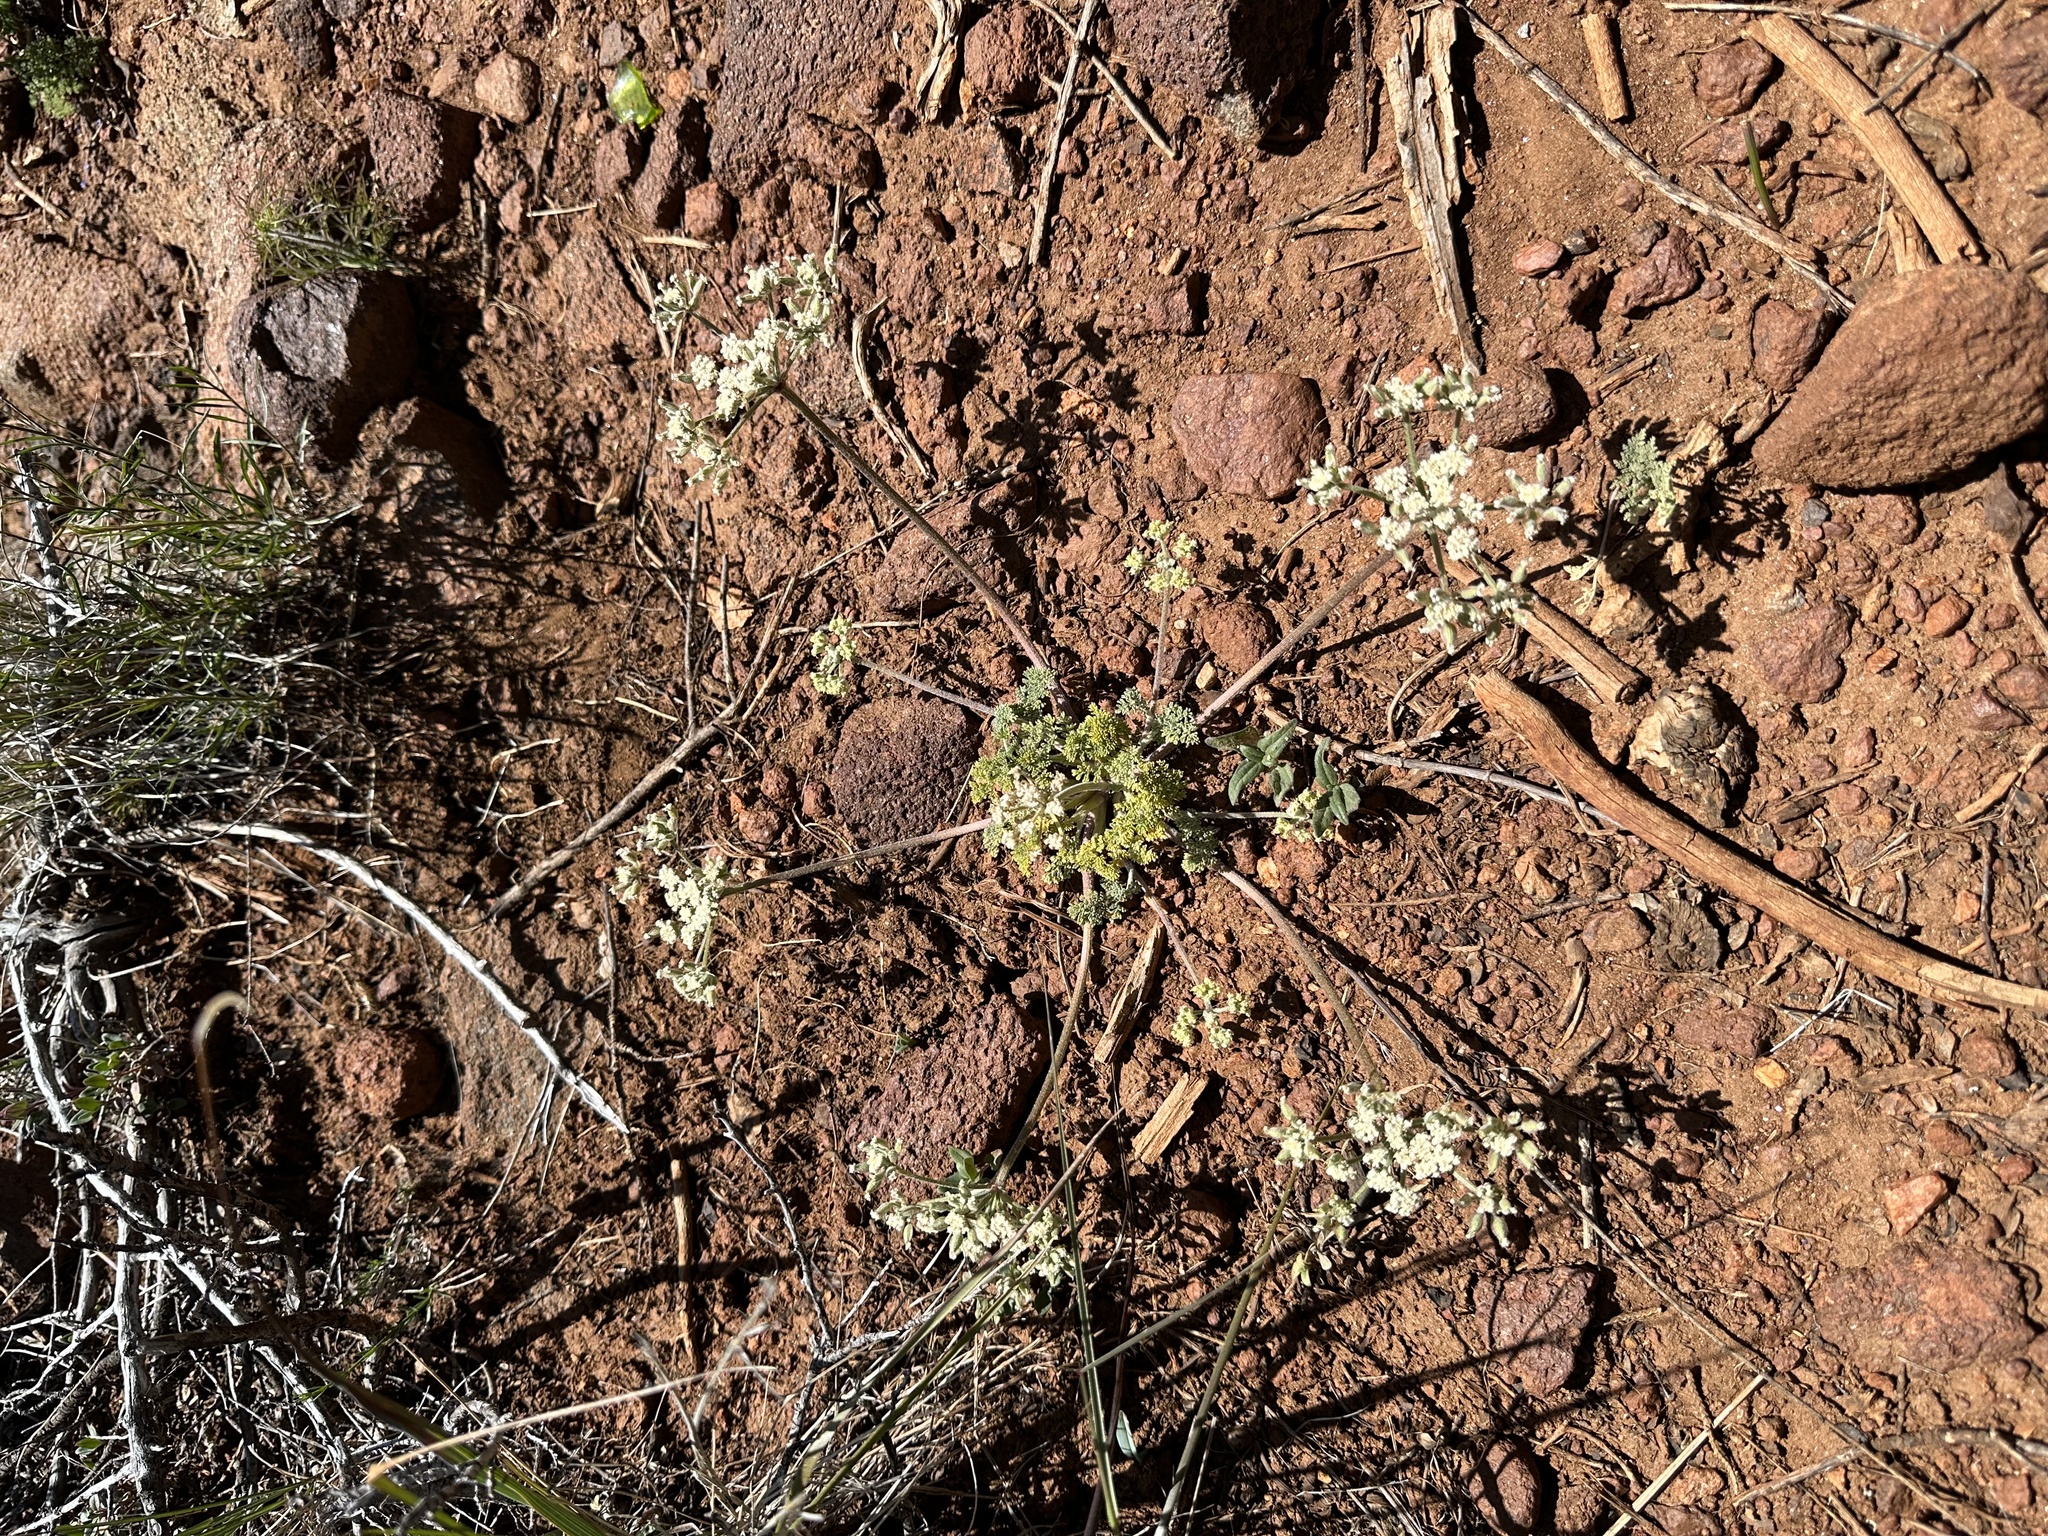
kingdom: Plantae
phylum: Tracheophyta
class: Magnoliopsida
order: Apiales
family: Apiaceae
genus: Lomatium
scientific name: Lomatium dasycarpum
